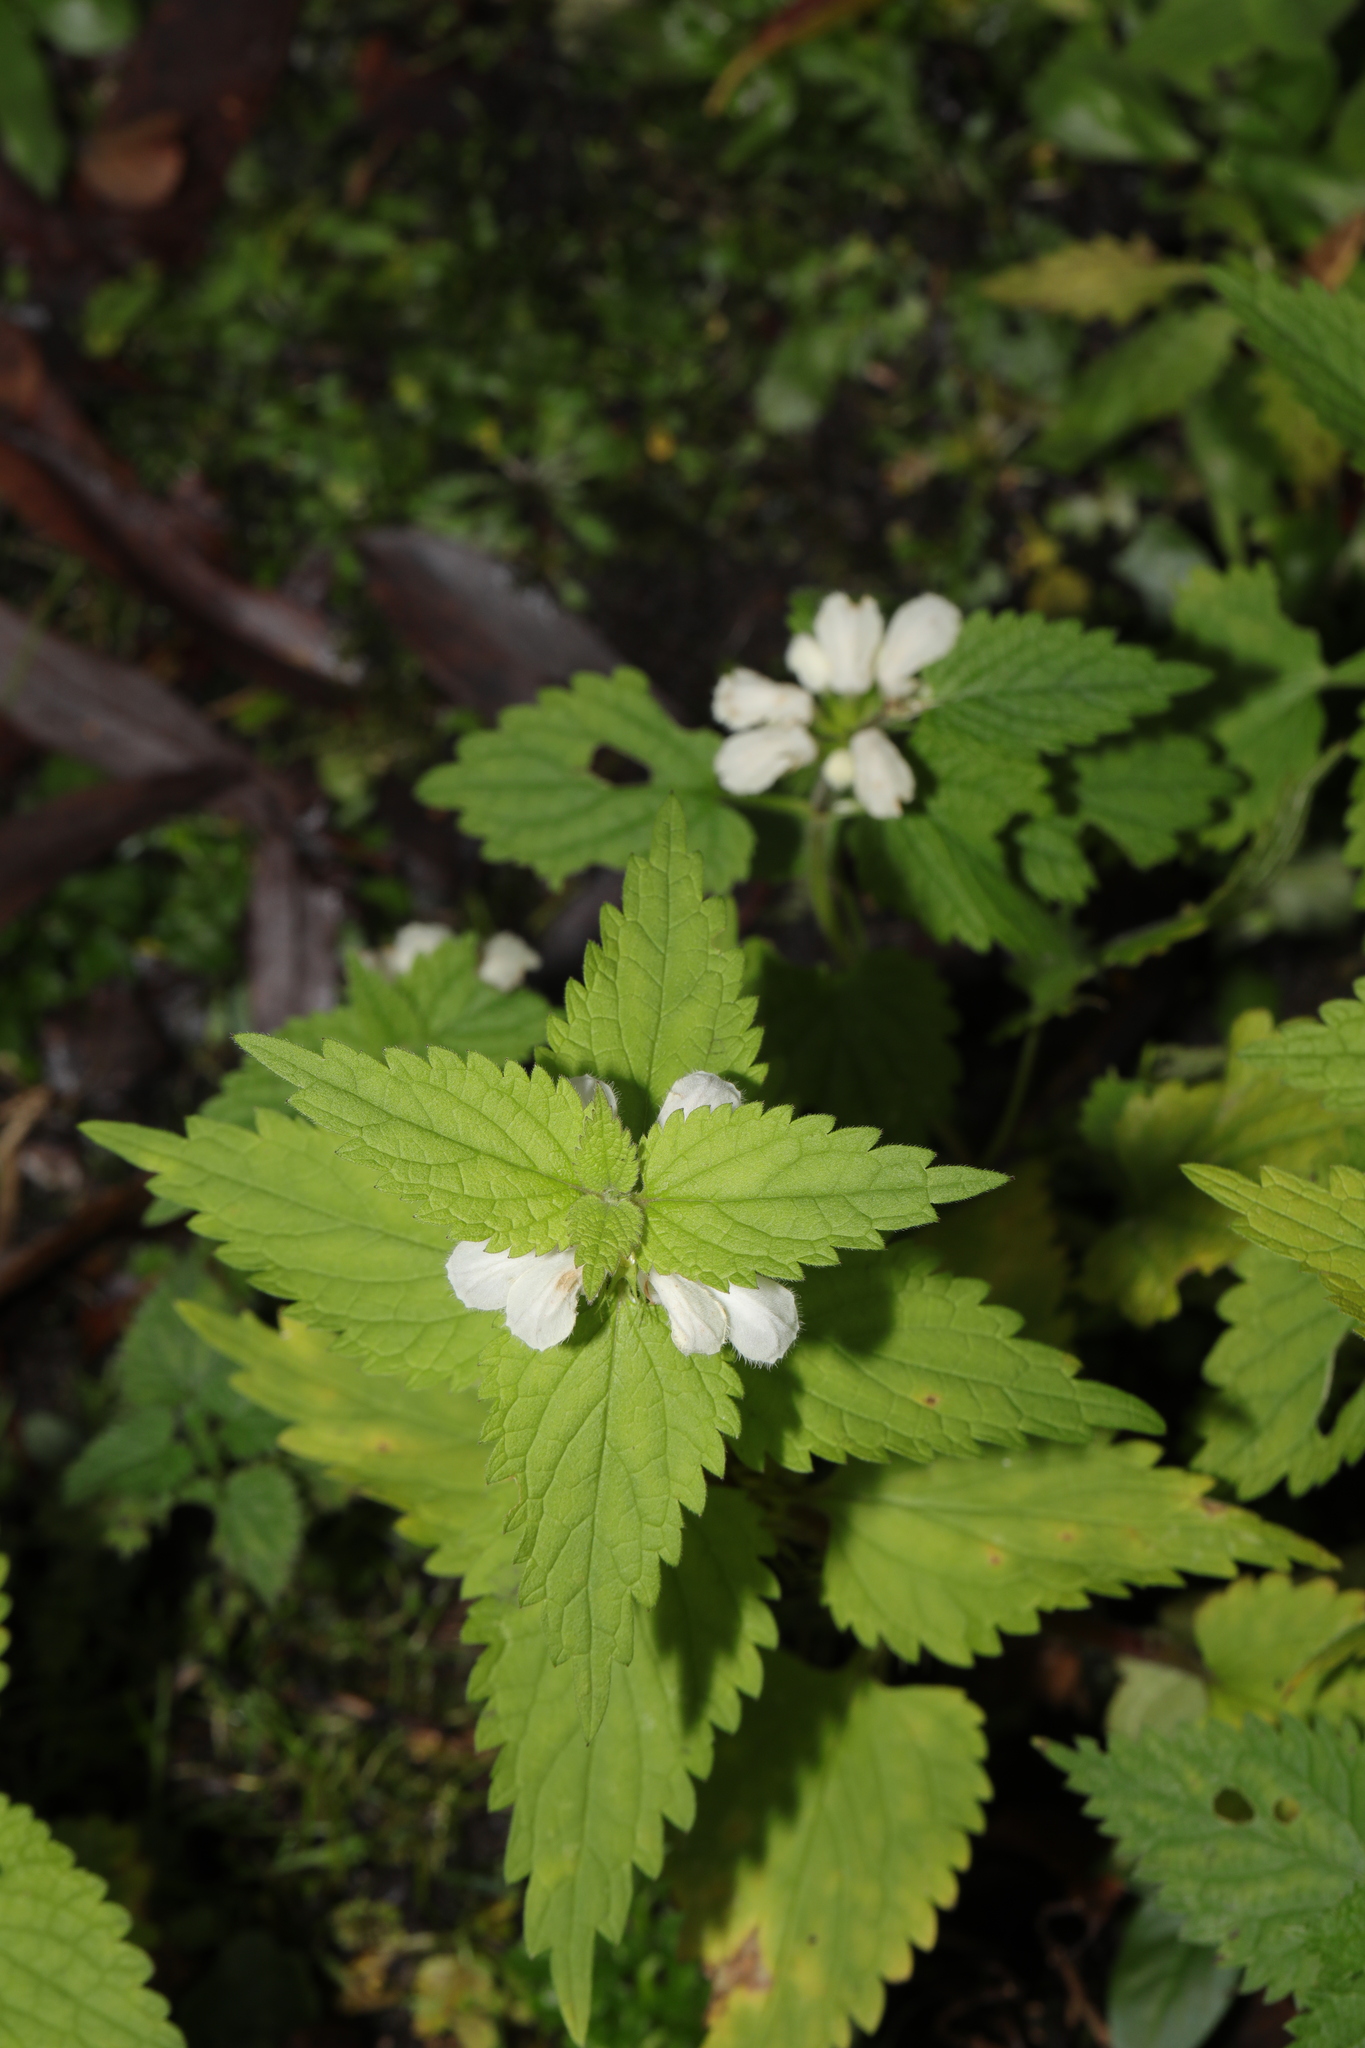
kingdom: Plantae
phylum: Tracheophyta
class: Magnoliopsida
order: Lamiales
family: Lamiaceae
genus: Lamium
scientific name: Lamium album
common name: White dead-nettle
